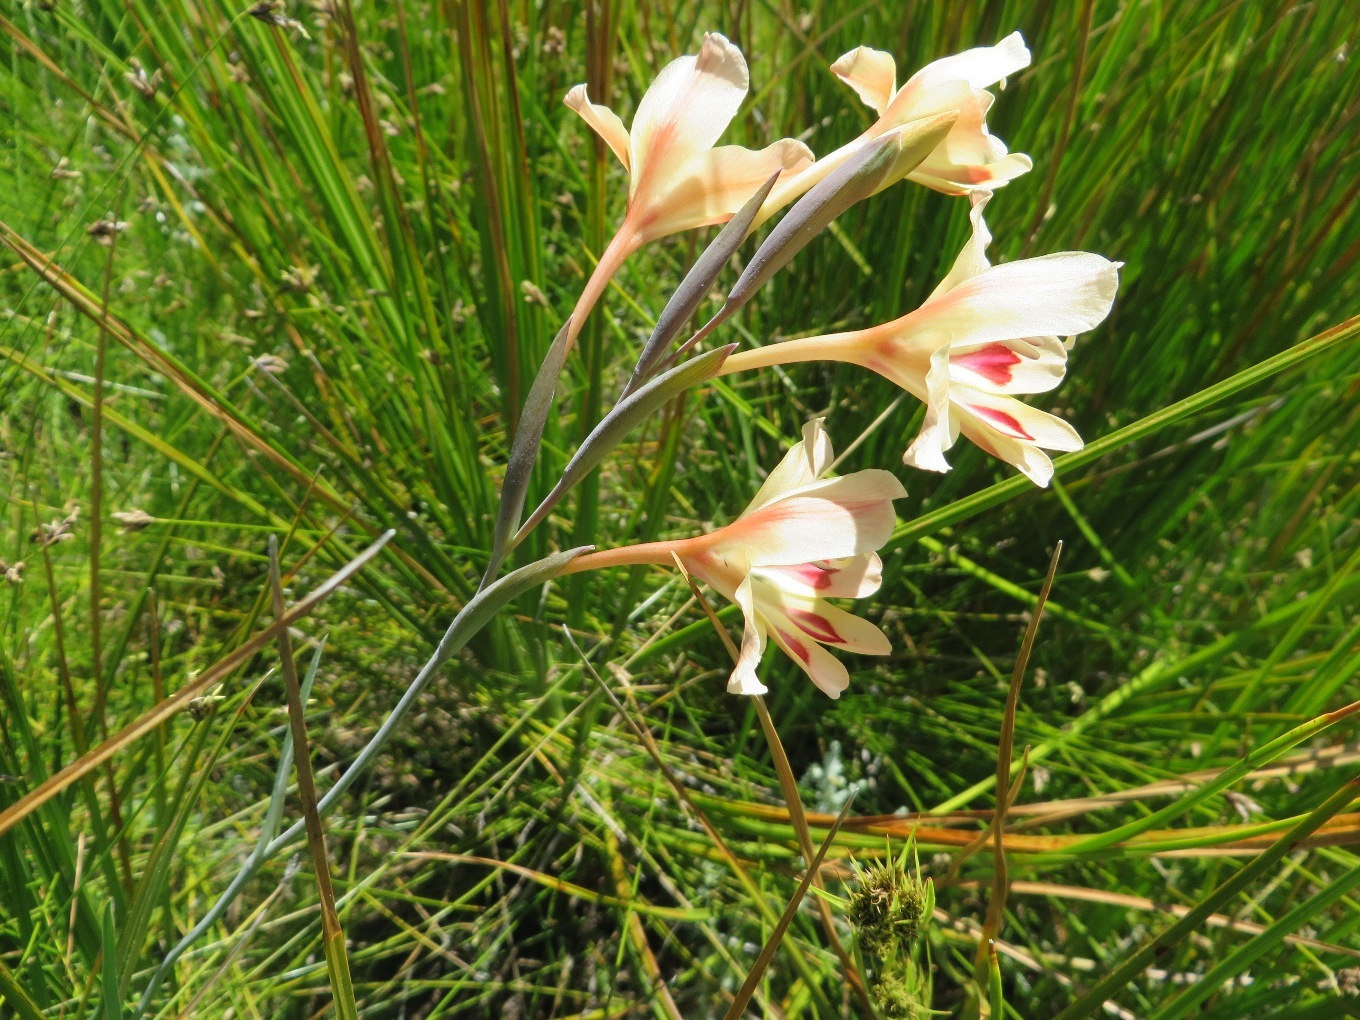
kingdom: Plantae
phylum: Tracheophyta
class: Liliopsida
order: Asparagales
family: Iridaceae
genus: Gladiolus
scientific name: Gladiolus angustus
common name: Painted-lady
